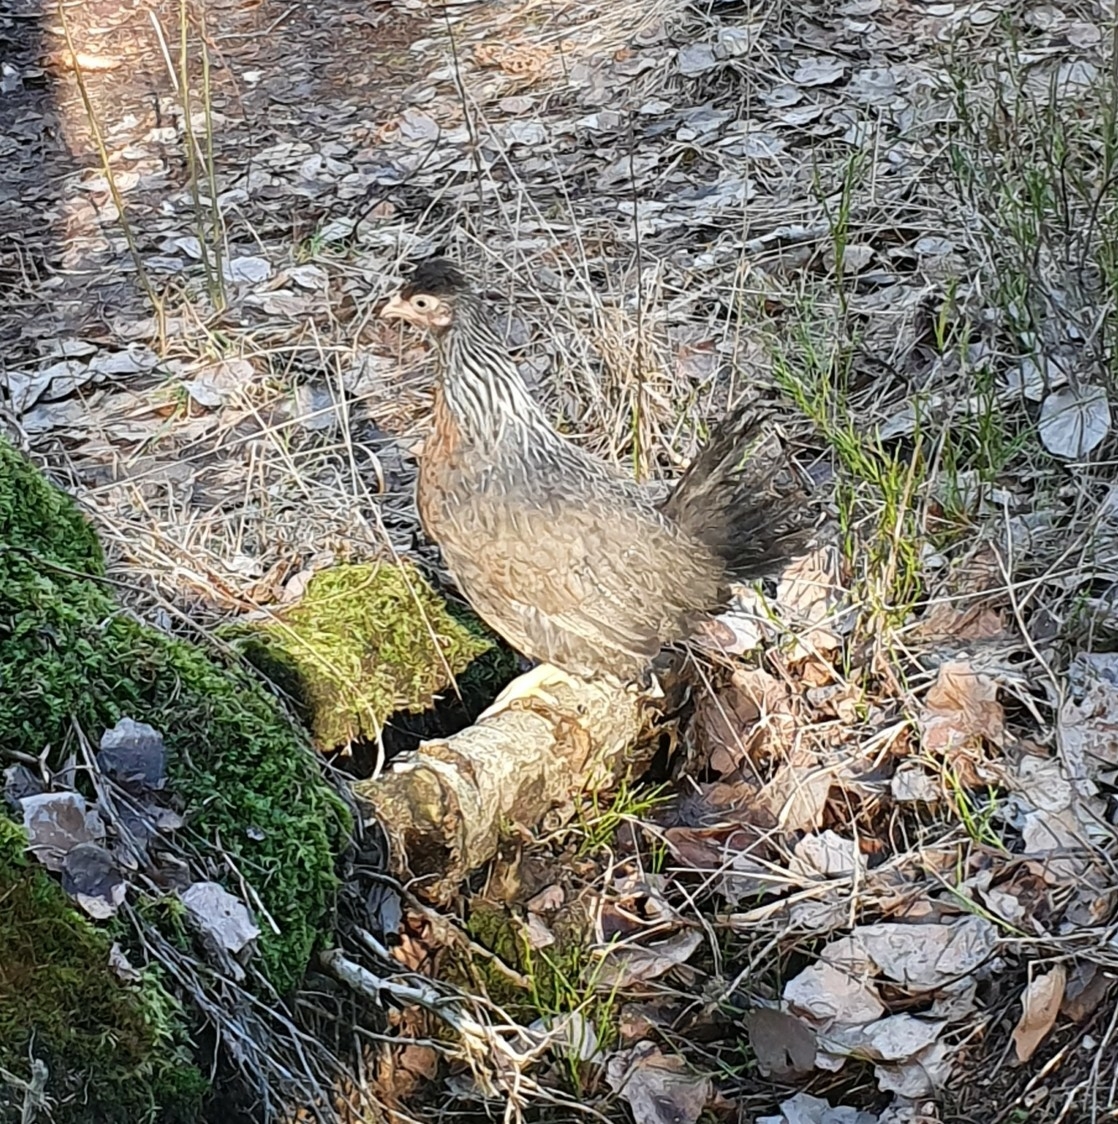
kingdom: Animalia
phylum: Chordata
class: Aves
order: Galliformes
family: Phasianidae
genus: Gallus
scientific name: Gallus gallus
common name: Red junglefowl
